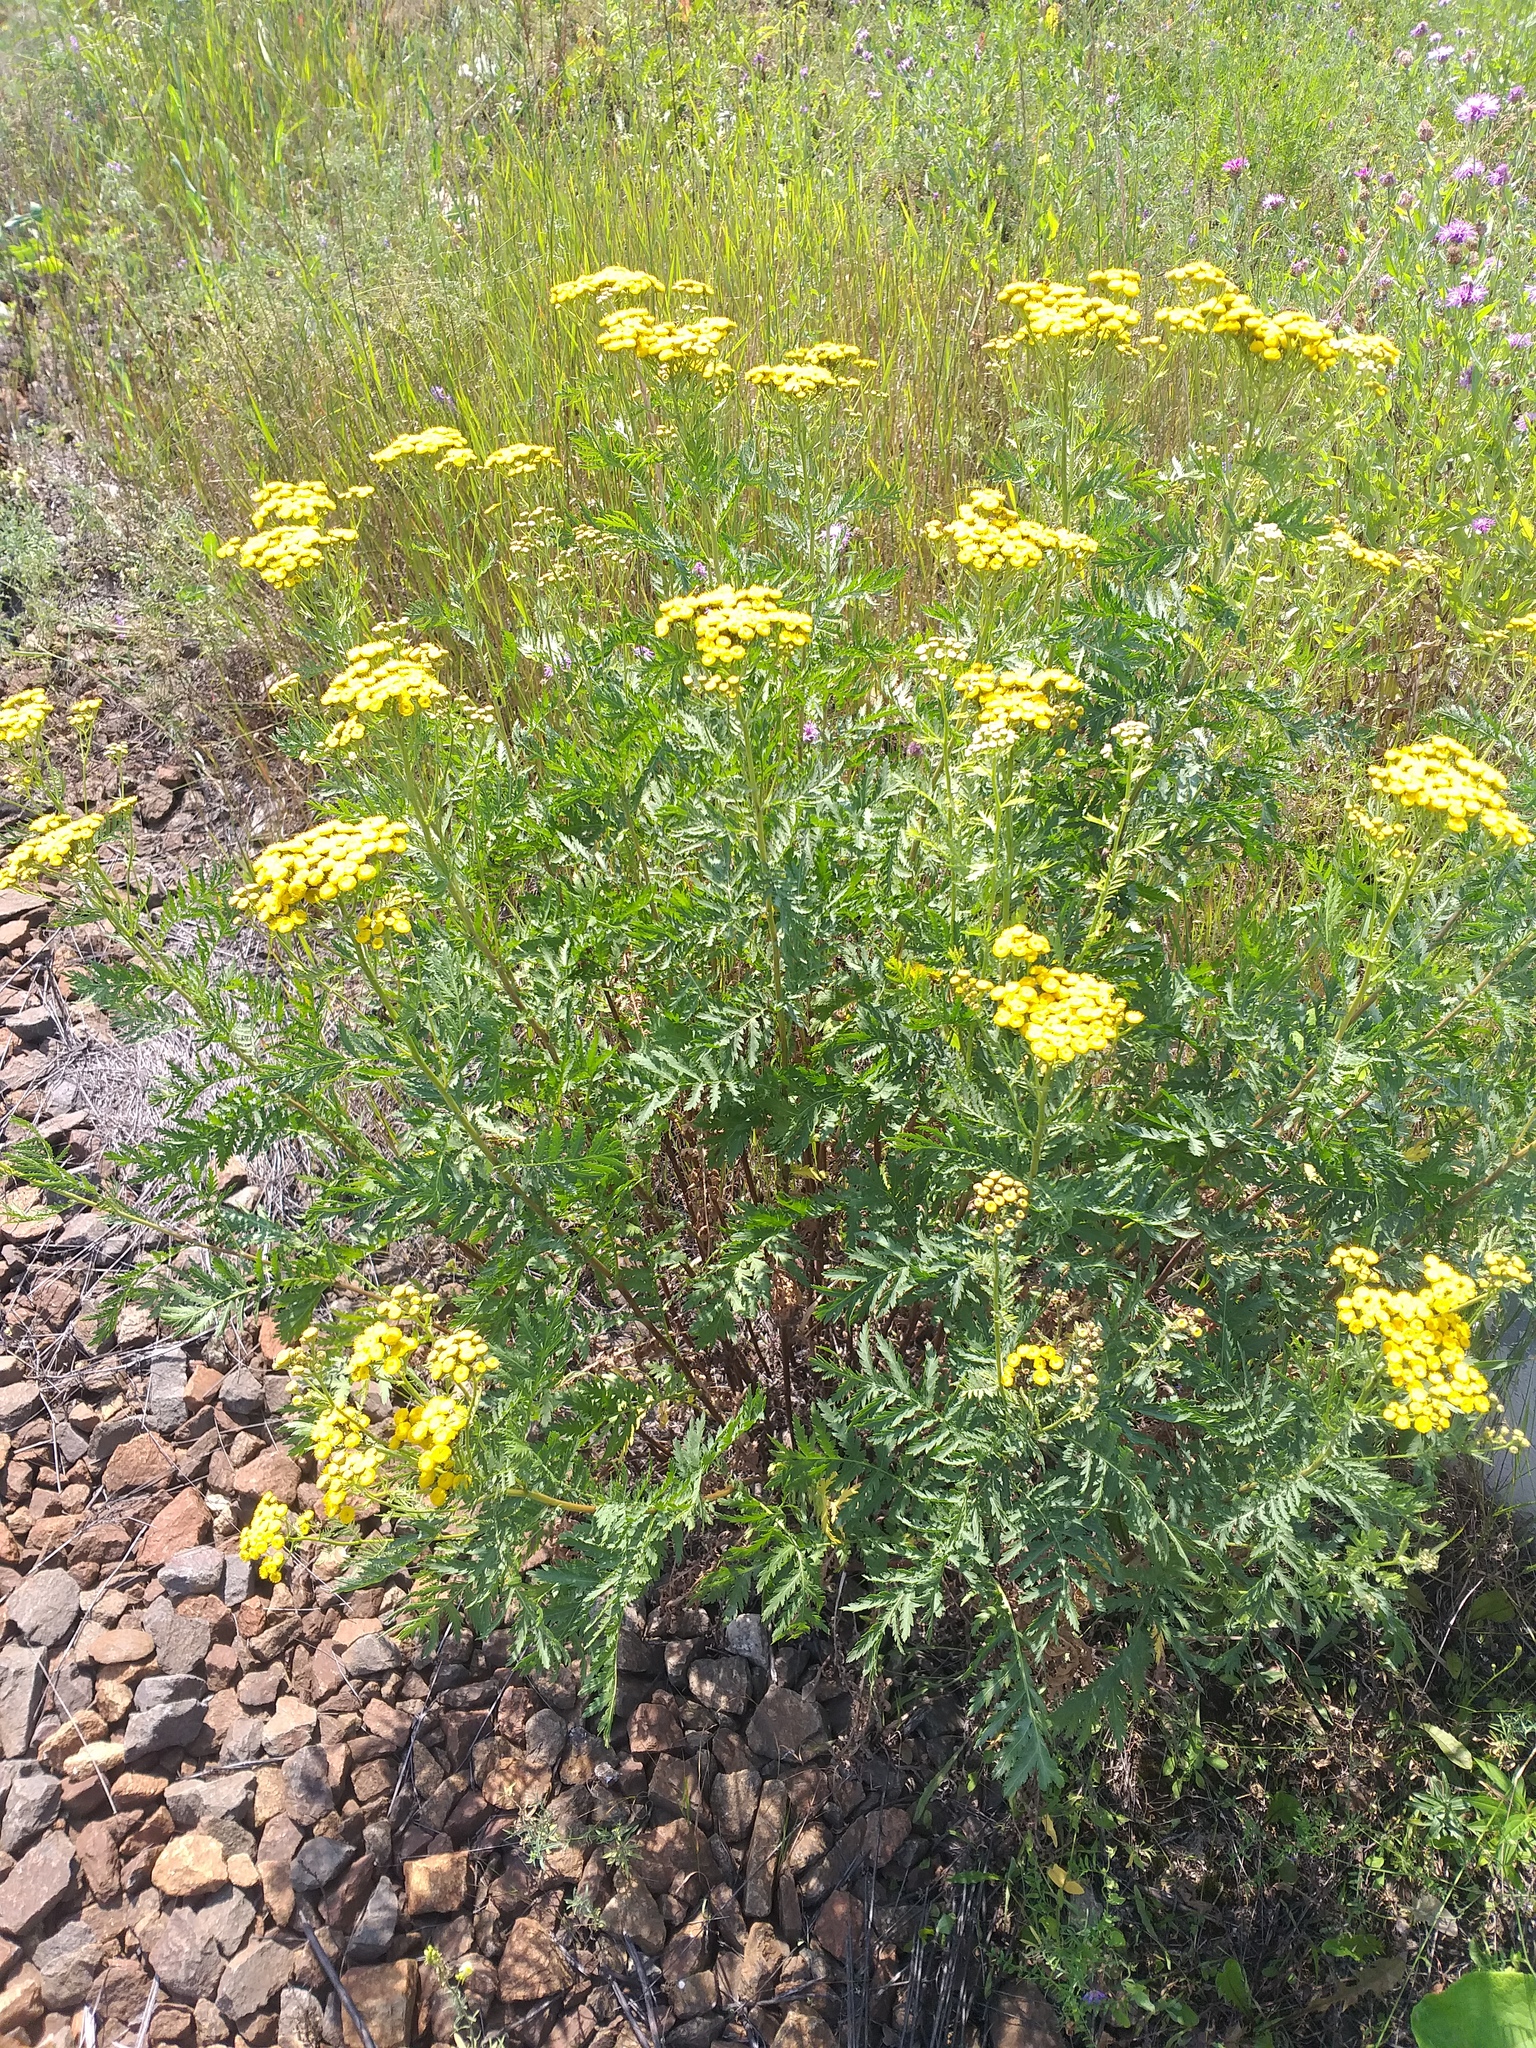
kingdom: Plantae
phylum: Tracheophyta
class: Magnoliopsida
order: Asterales
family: Asteraceae
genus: Tanacetum
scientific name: Tanacetum vulgare
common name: Common tansy
